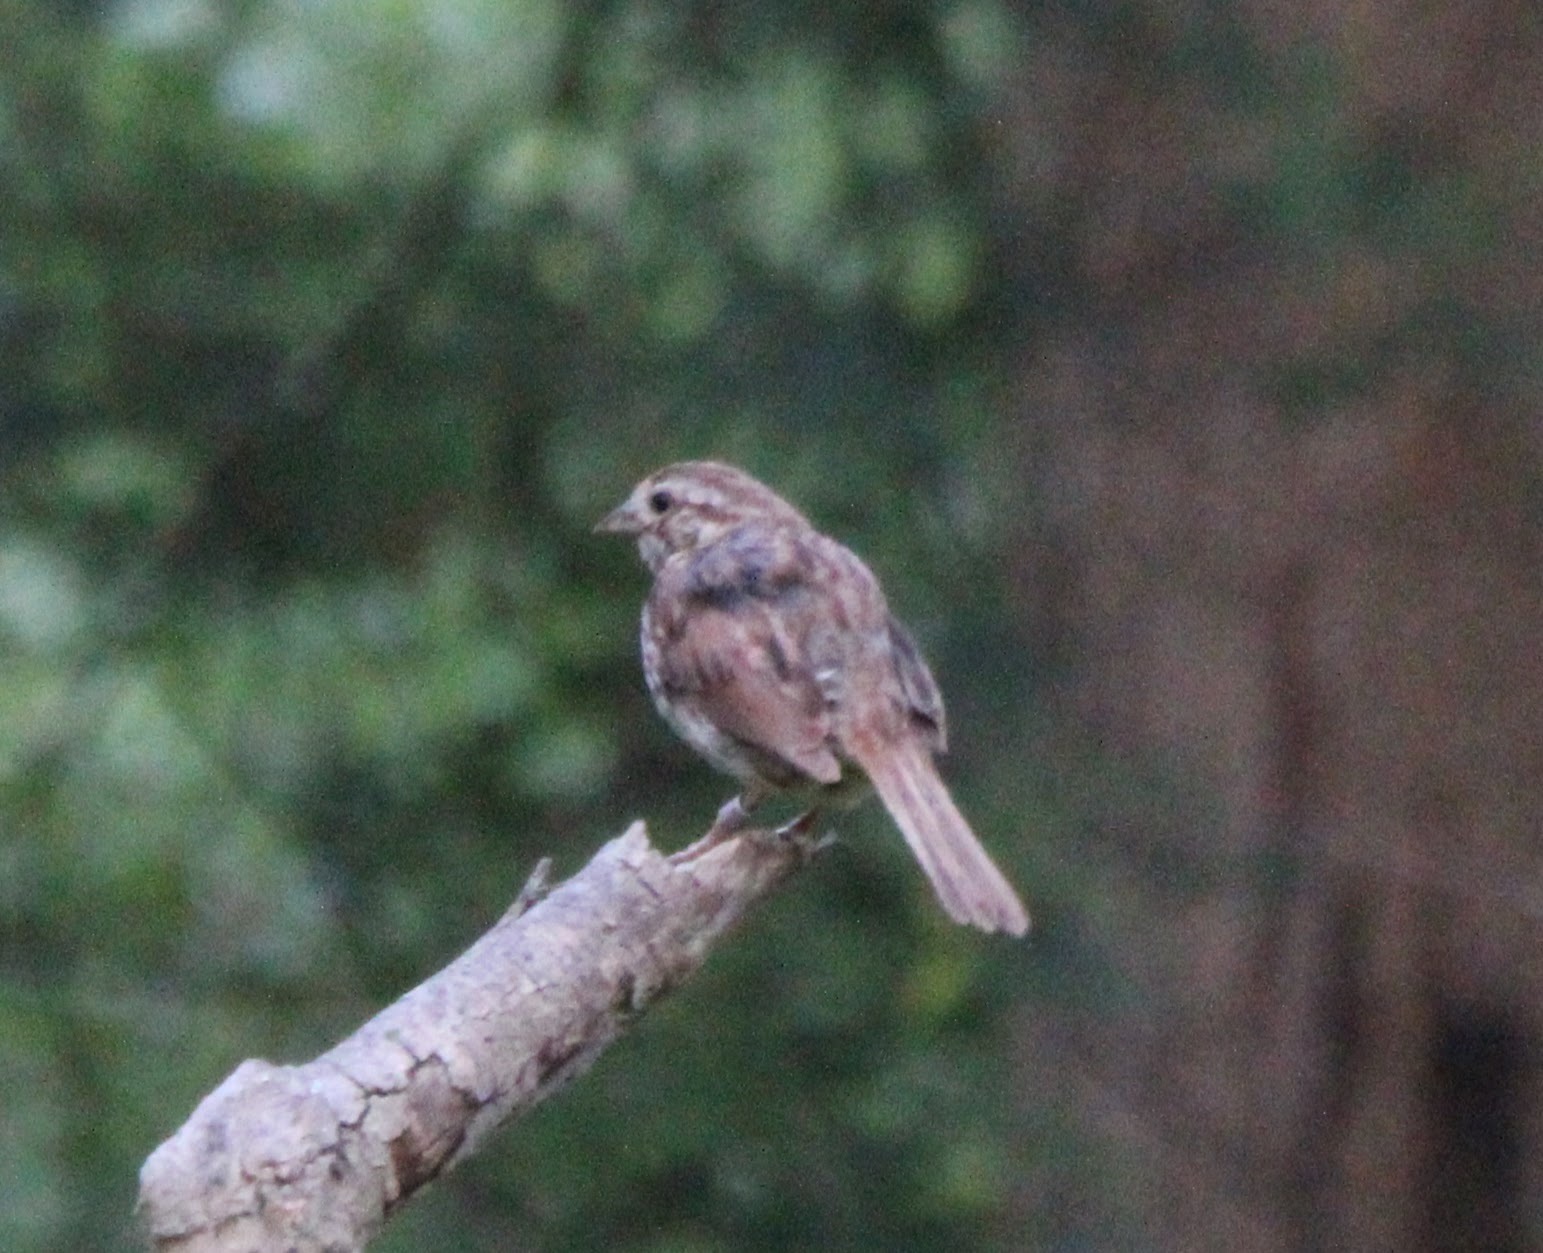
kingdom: Animalia
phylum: Chordata
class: Aves
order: Passeriformes
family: Passerellidae
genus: Melospiza
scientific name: Melospiza melodia
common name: Song sparrow
